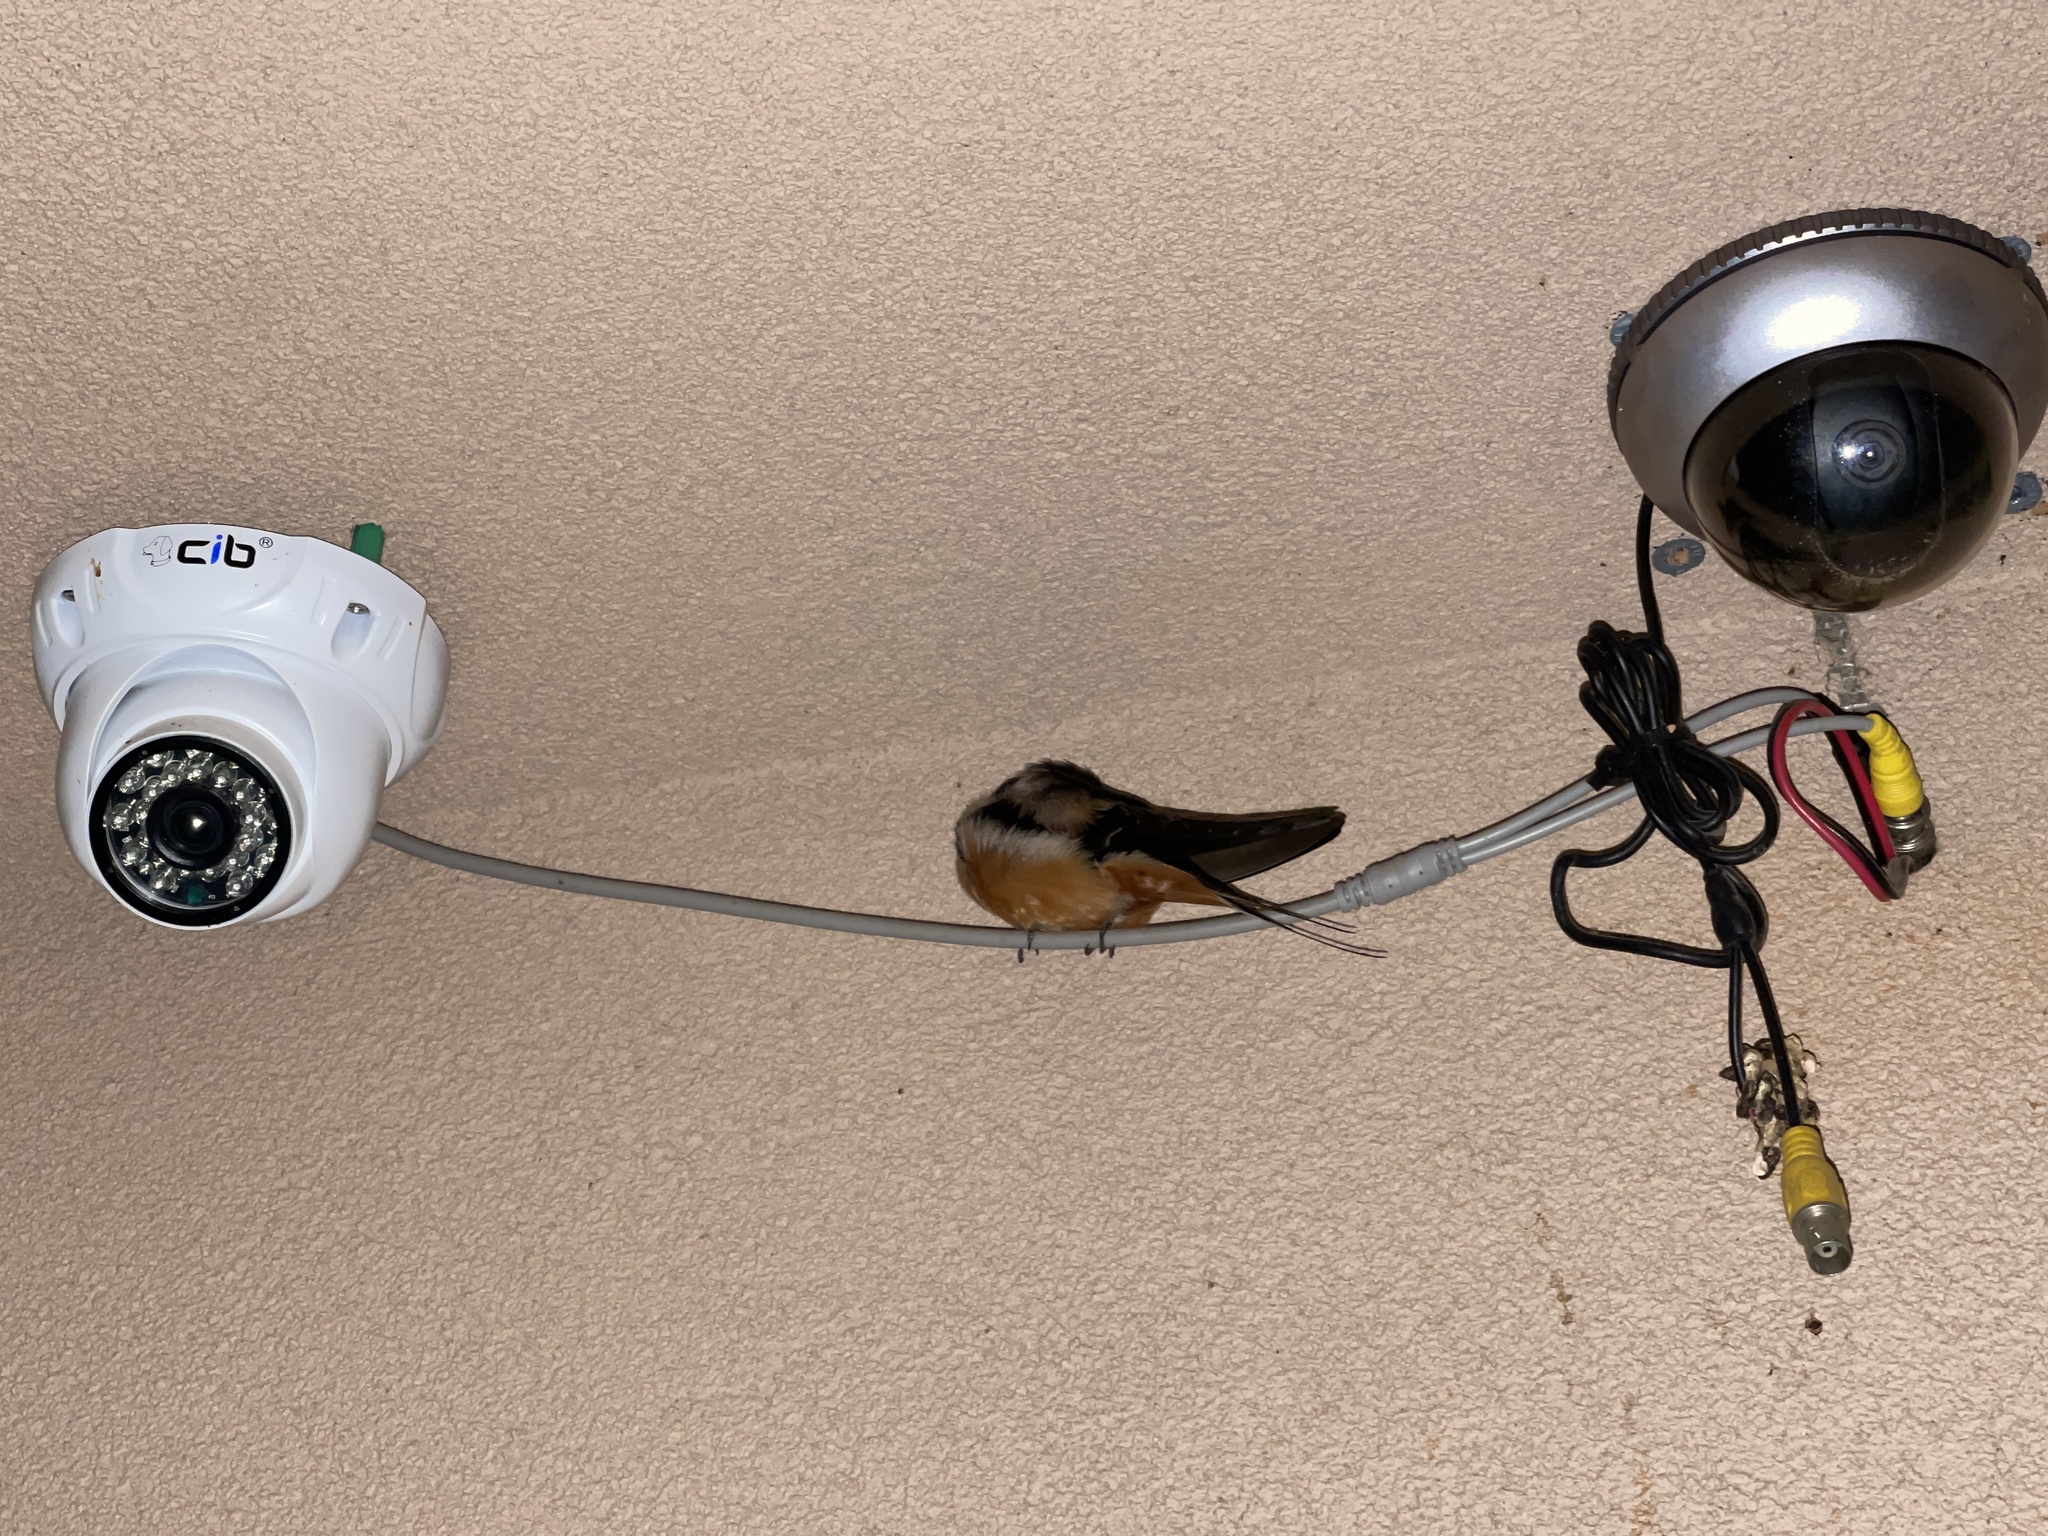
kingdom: Animalia
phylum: Chordata
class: Aves
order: Passeriformes
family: Hirundinidae
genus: Hirundo
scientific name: Hirundo rustica
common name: Barn swallow
